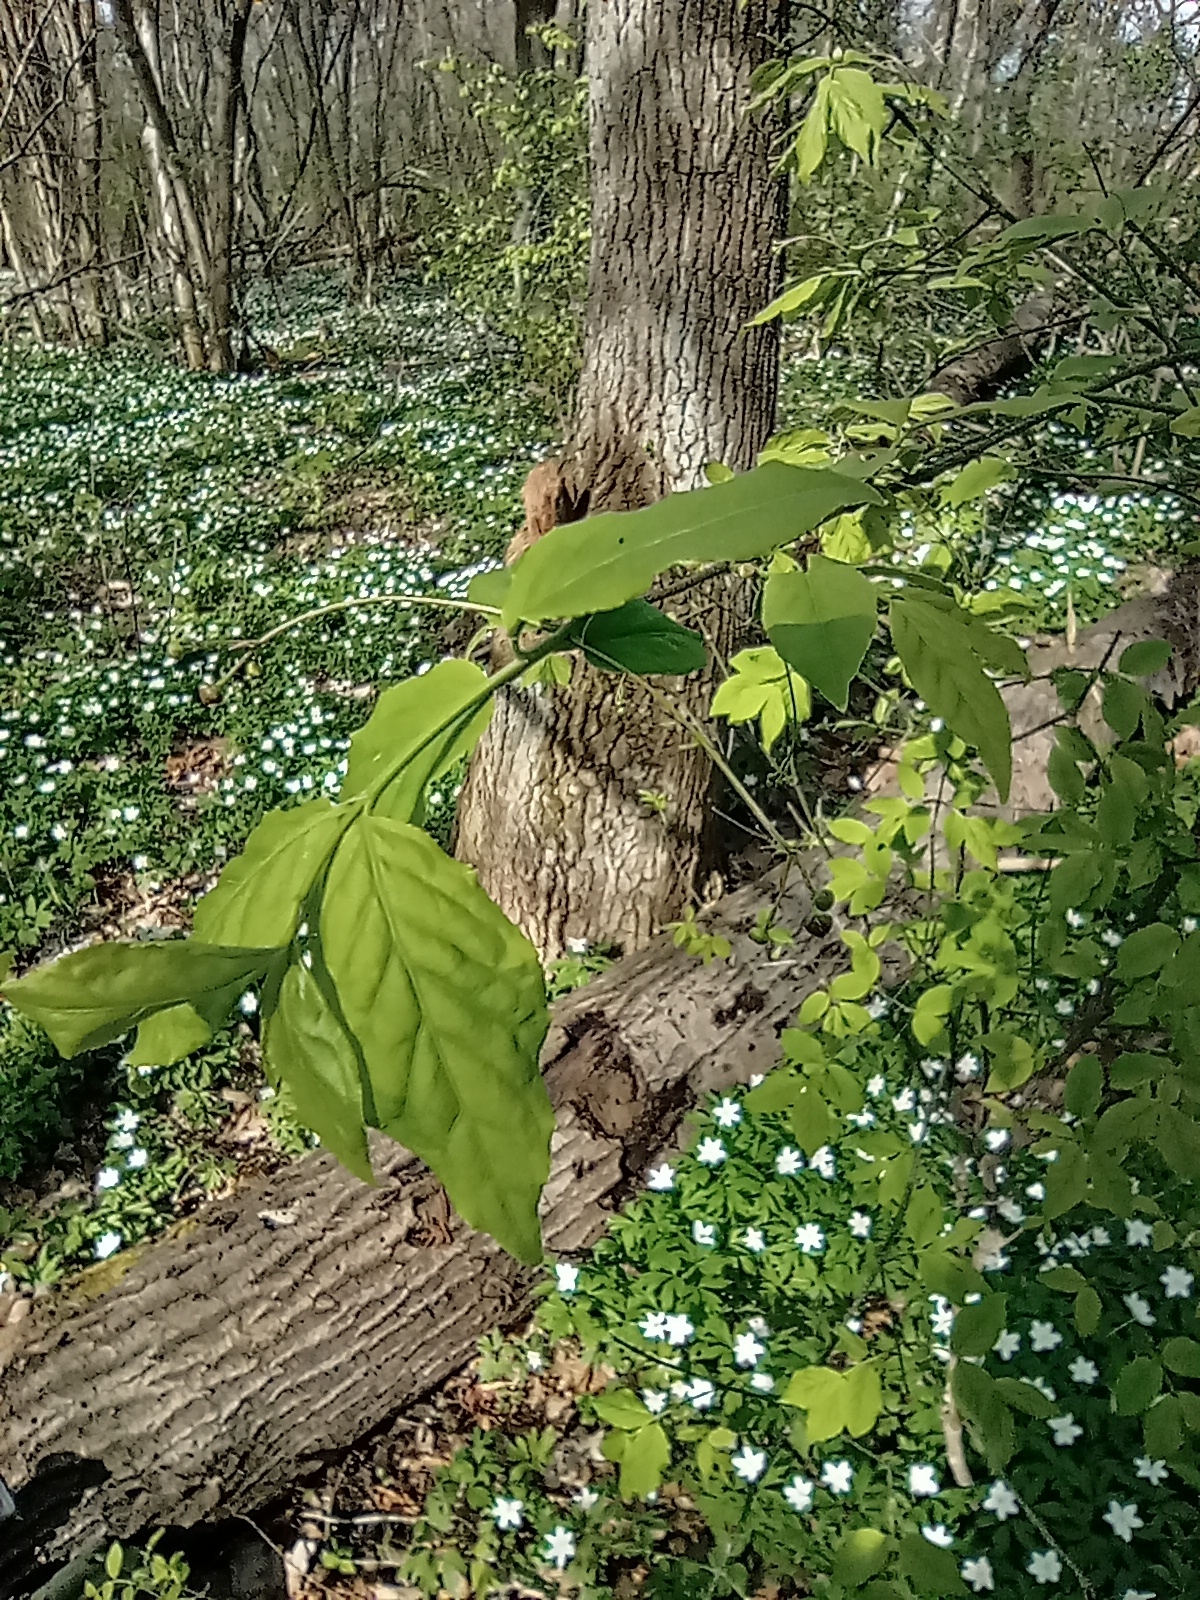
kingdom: Plantae
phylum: Tracheophyta
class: Magnoliopsida
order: Celastrales
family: Celastraceae
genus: Euonymus
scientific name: Euonymus verrucosus
